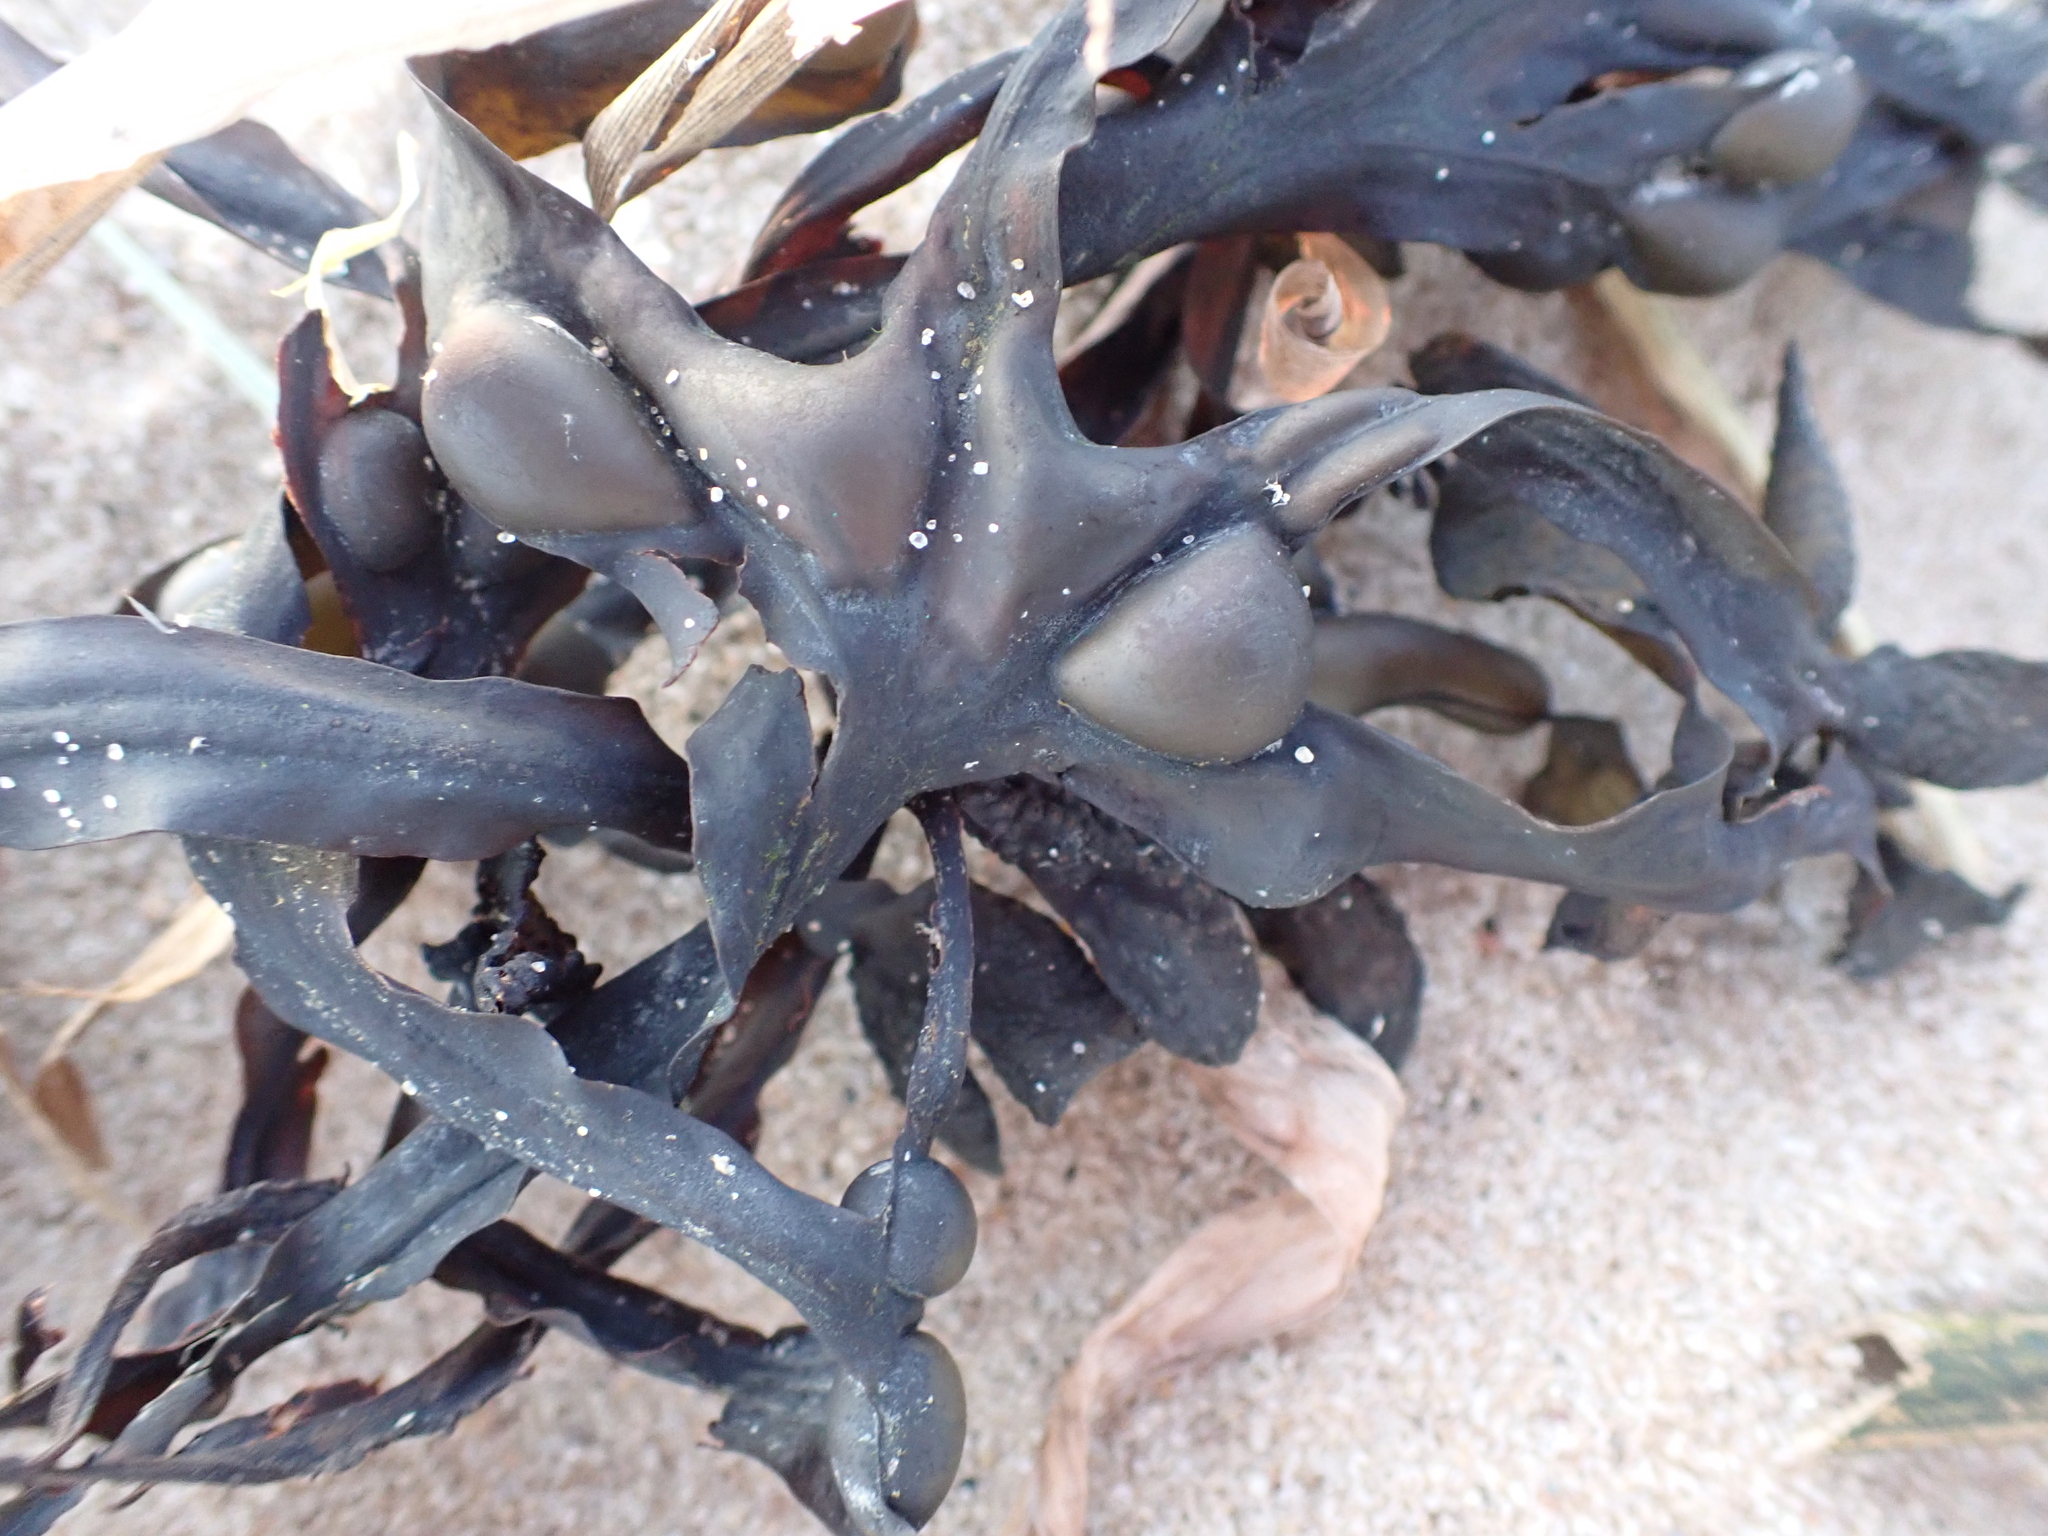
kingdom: Chromista
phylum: Ochrophyta
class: Phaeophyceae
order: Fucales
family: Fucaceae
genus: Fucus
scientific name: Fucus vesiculosus
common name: Bladder wrack
